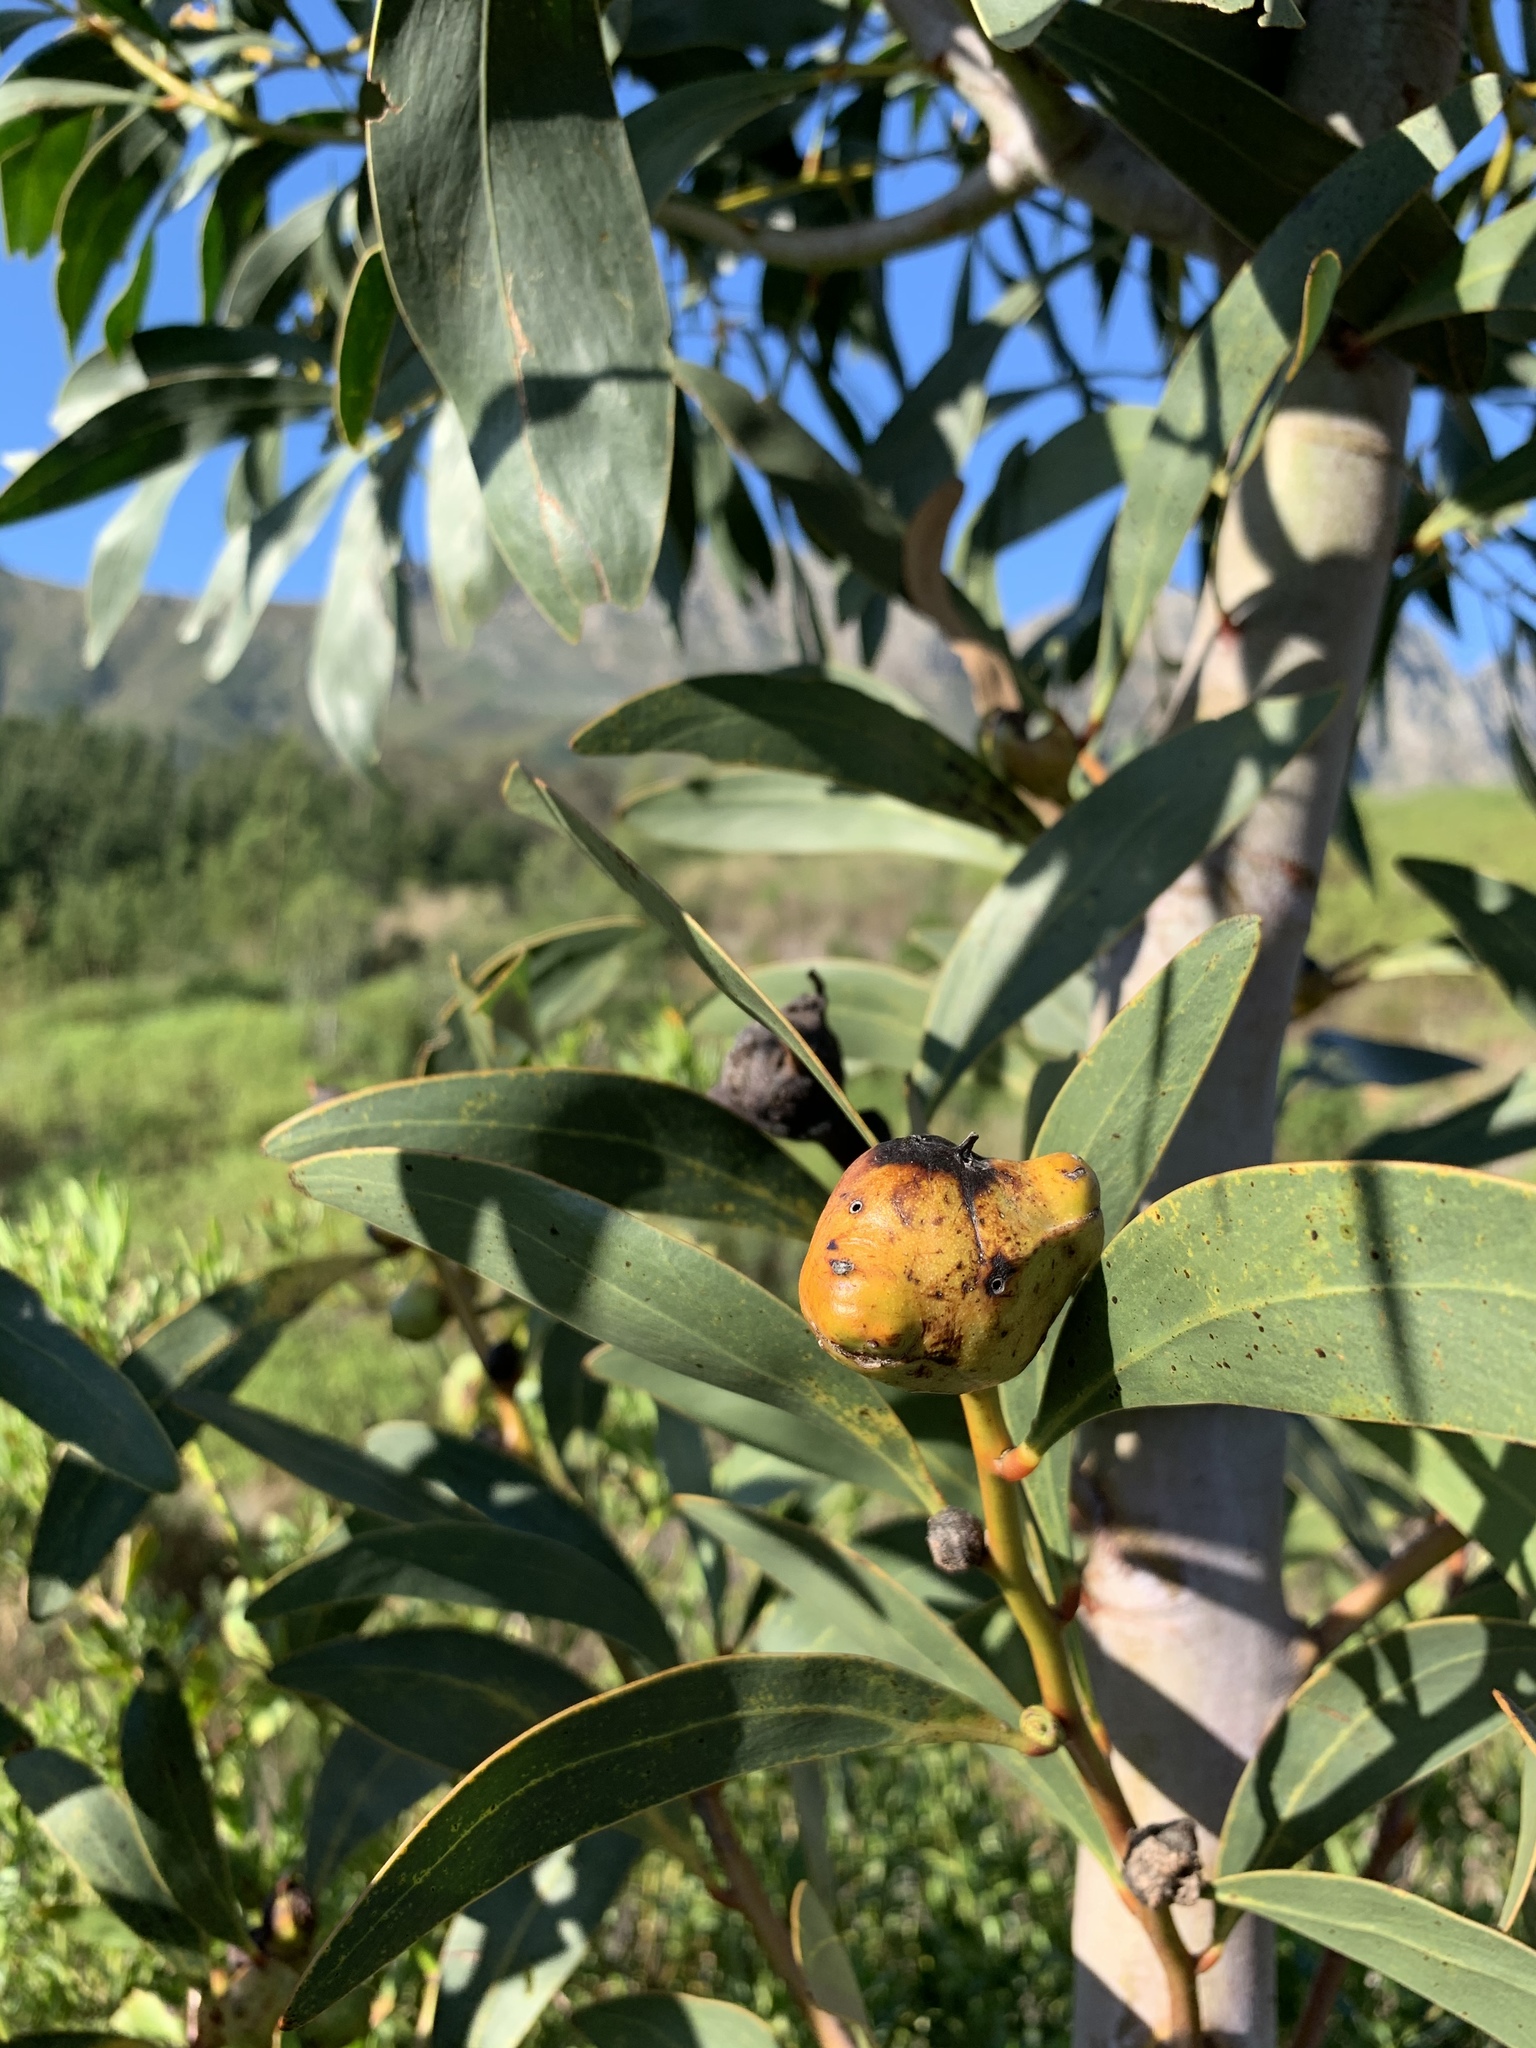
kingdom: Animalia
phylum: Arthropoda
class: Insecta
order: Hymenoptera
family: Pteromalidae
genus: Trichilogaster
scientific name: Trichilogaster signiventris
